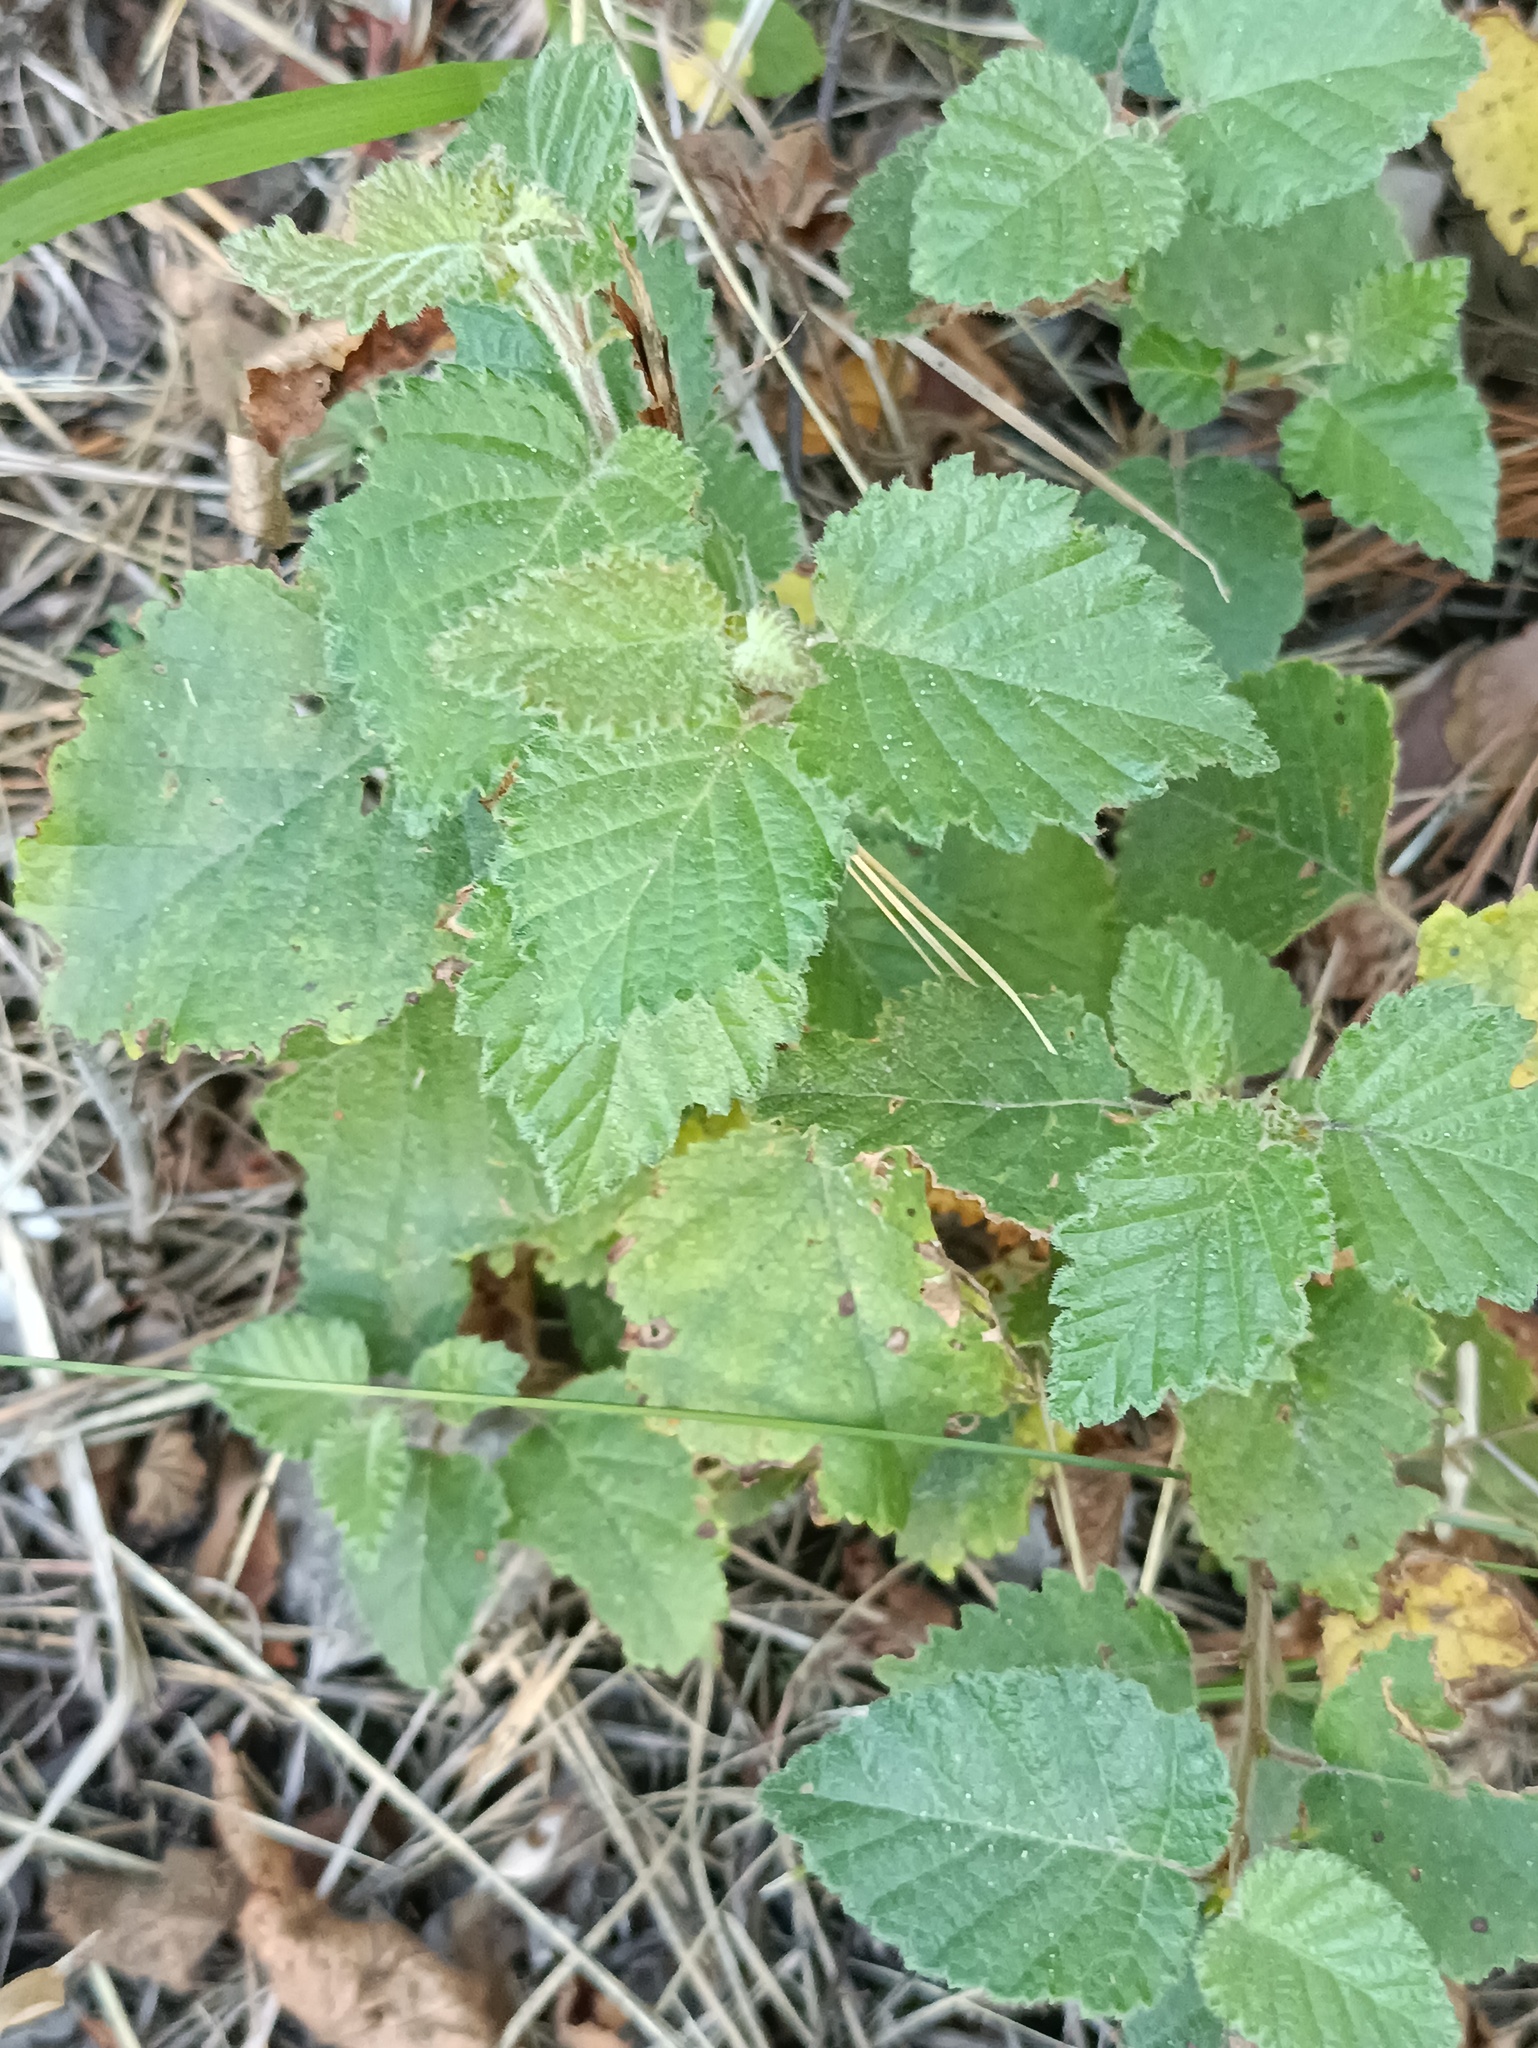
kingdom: Plantae
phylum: Tracheophyta
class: Magnoliopsida
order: Fagales
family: Betulaceae
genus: Betula
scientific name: Betula pubescens
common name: Downy birch
